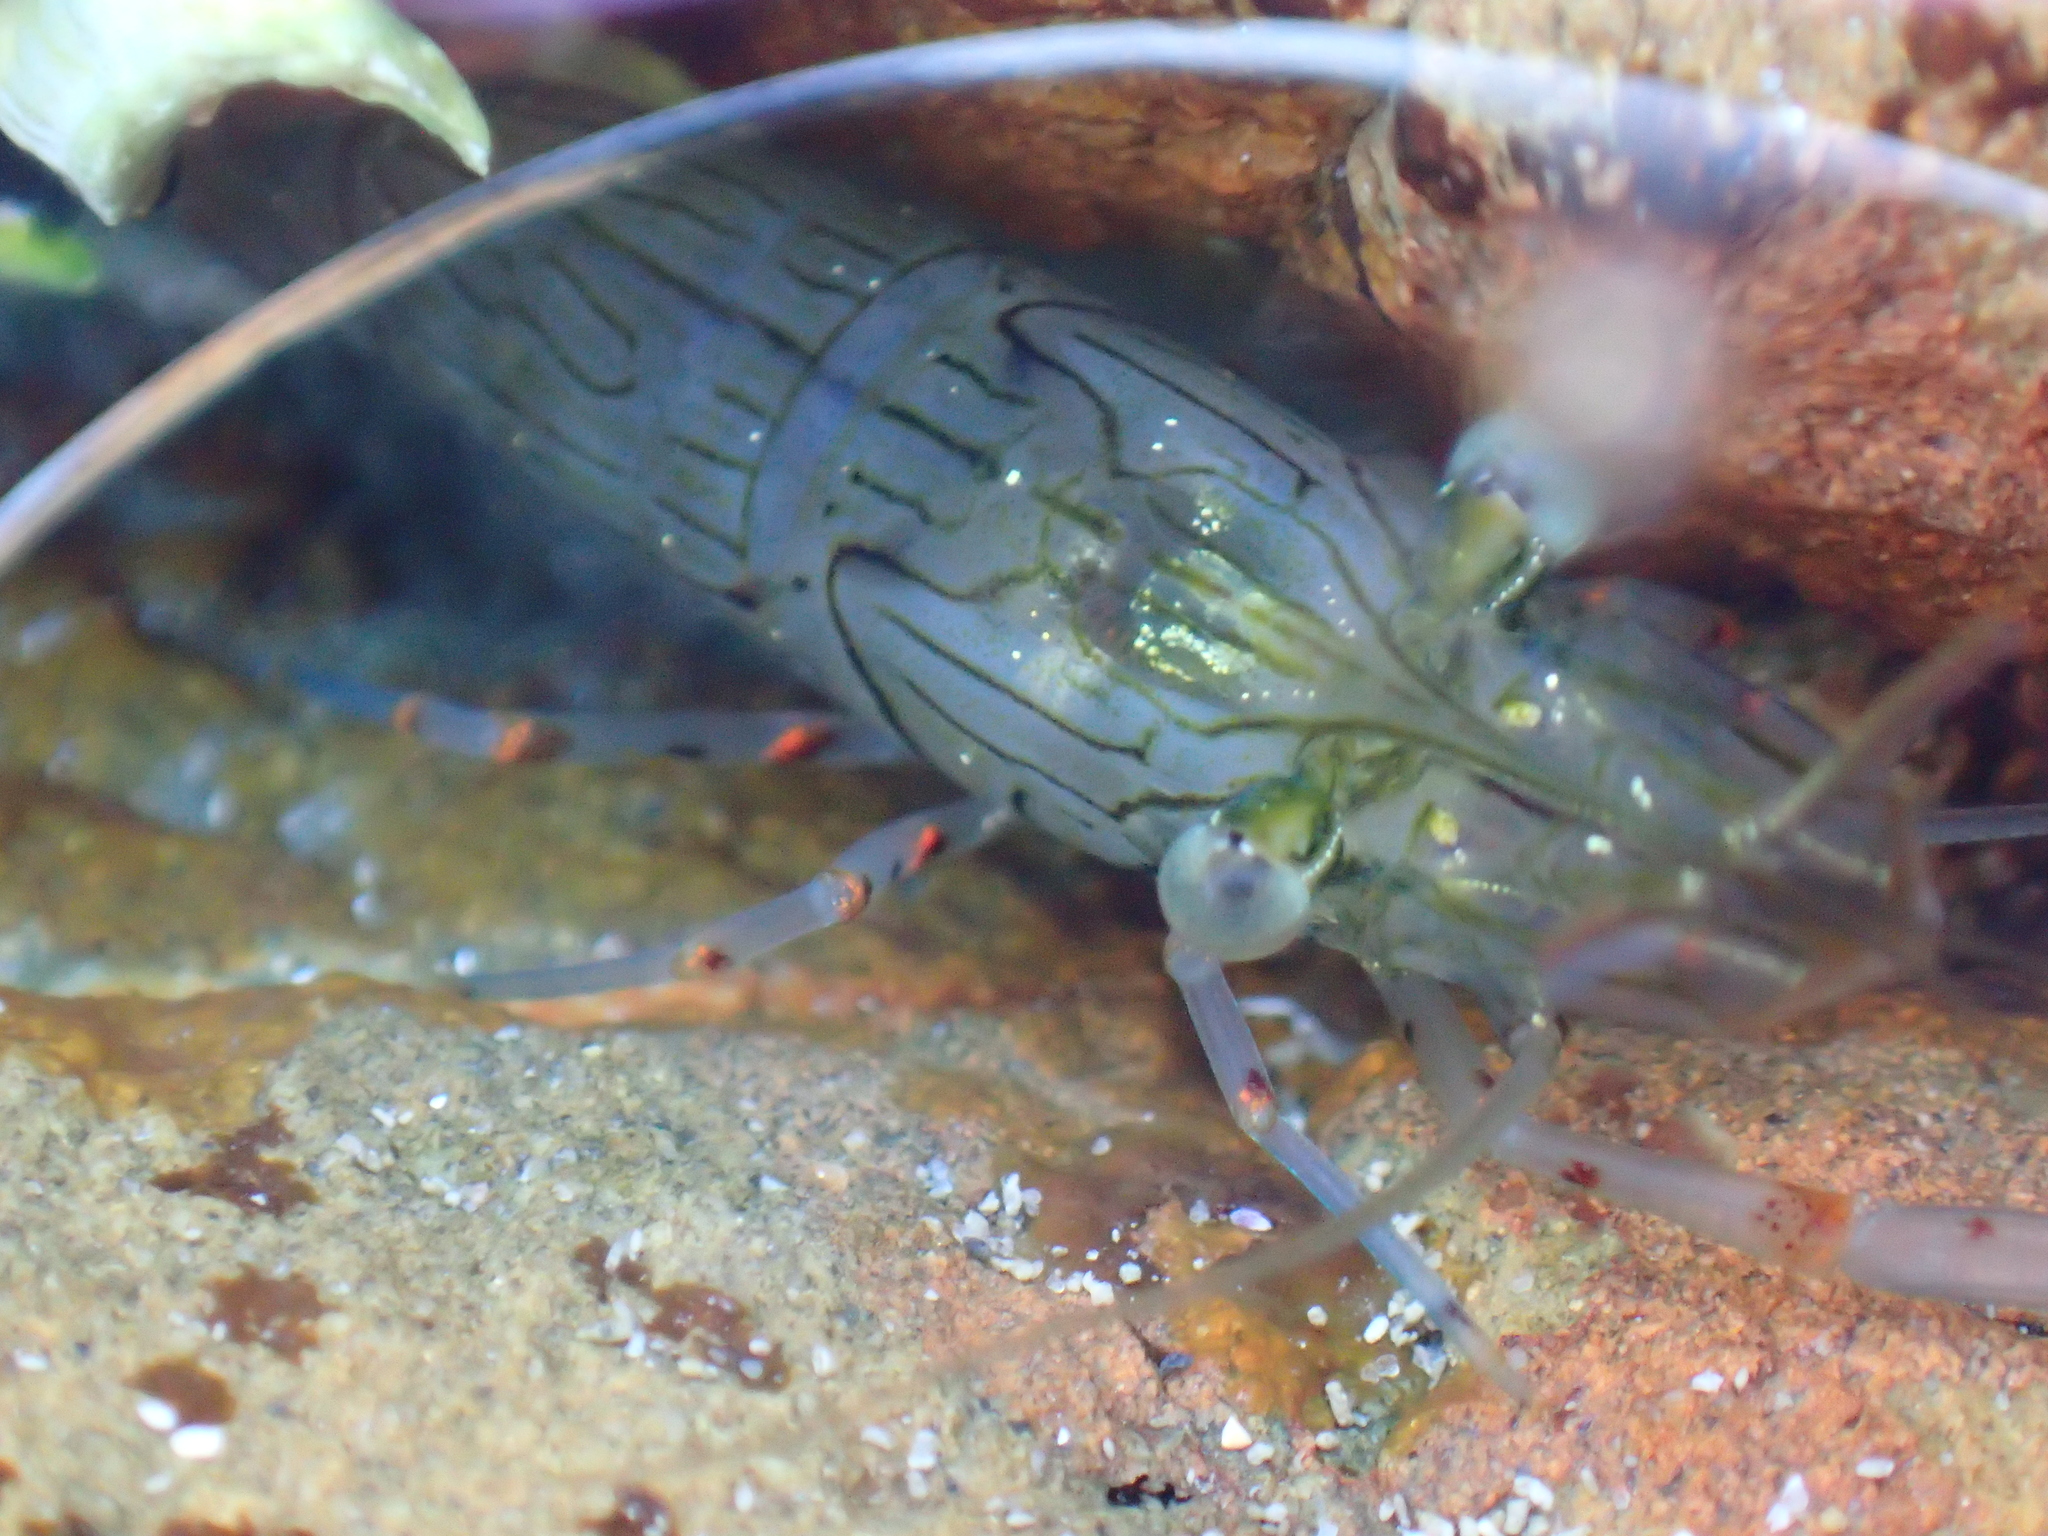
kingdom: Animalia
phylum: Arthropoda
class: Malacostraca
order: Decapoda
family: Palaemonidae
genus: Palaemon
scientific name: Palaemon affinis
